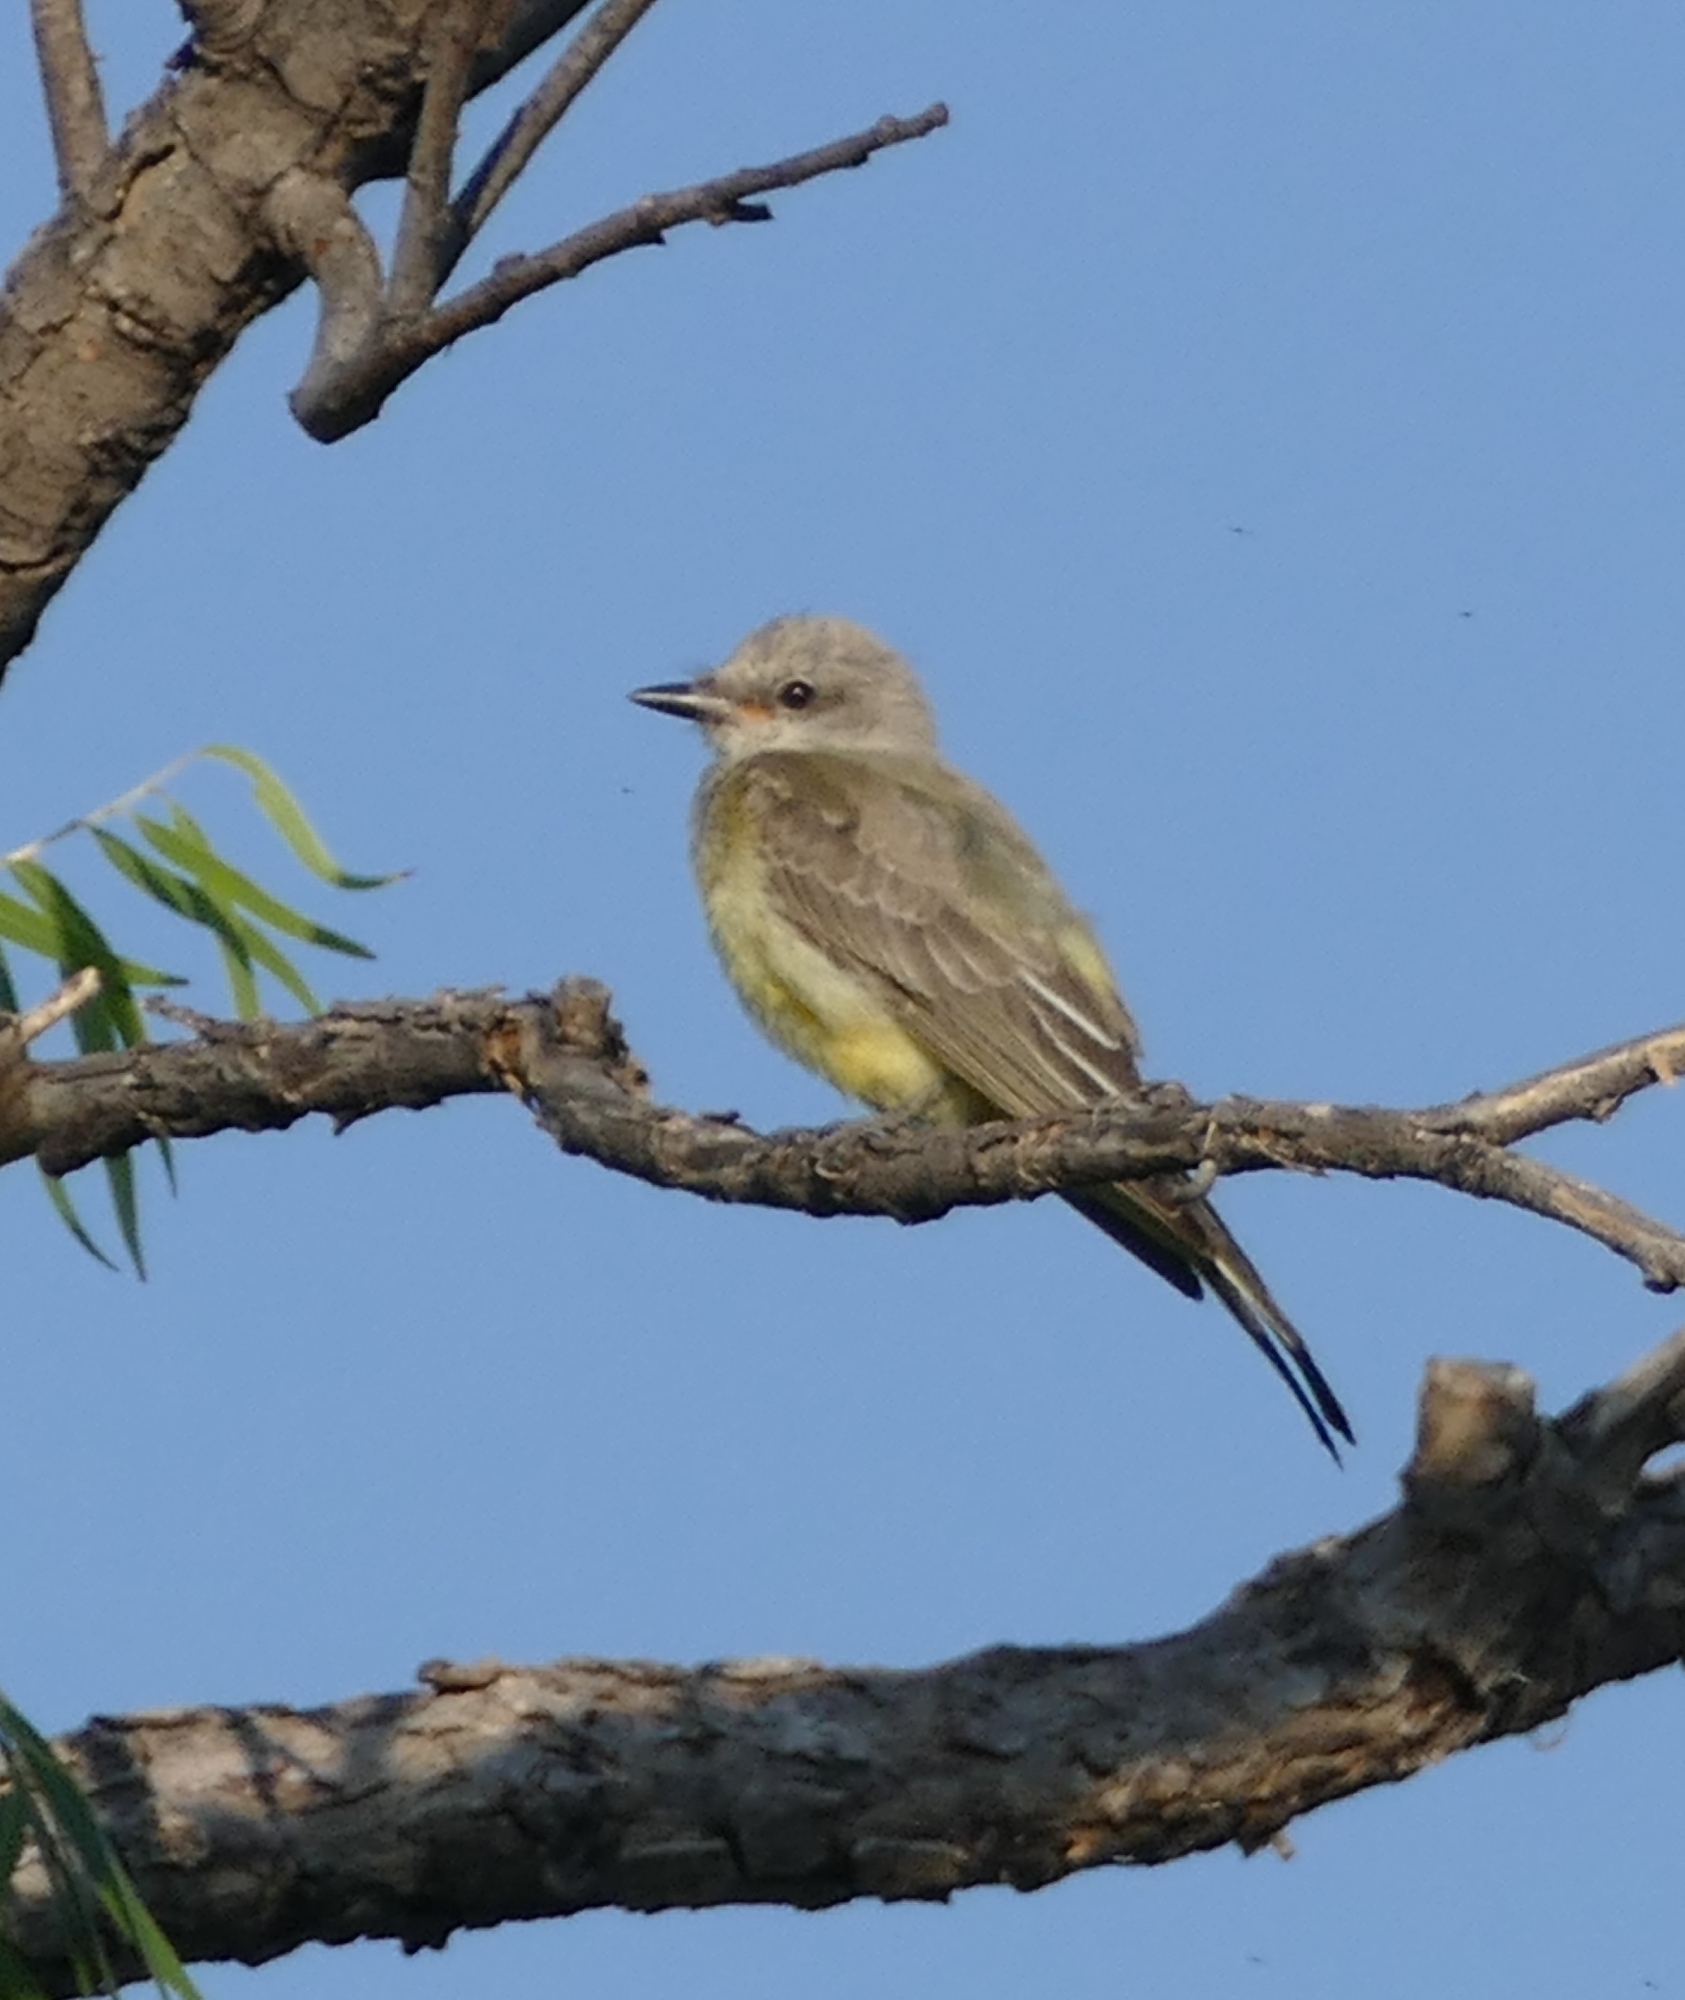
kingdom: Animalia
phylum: Chordata
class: Aves
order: Passeriformes
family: Tyrannidae
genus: Tyrannus
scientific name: Tyrannus verticalis
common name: Western kingbird
